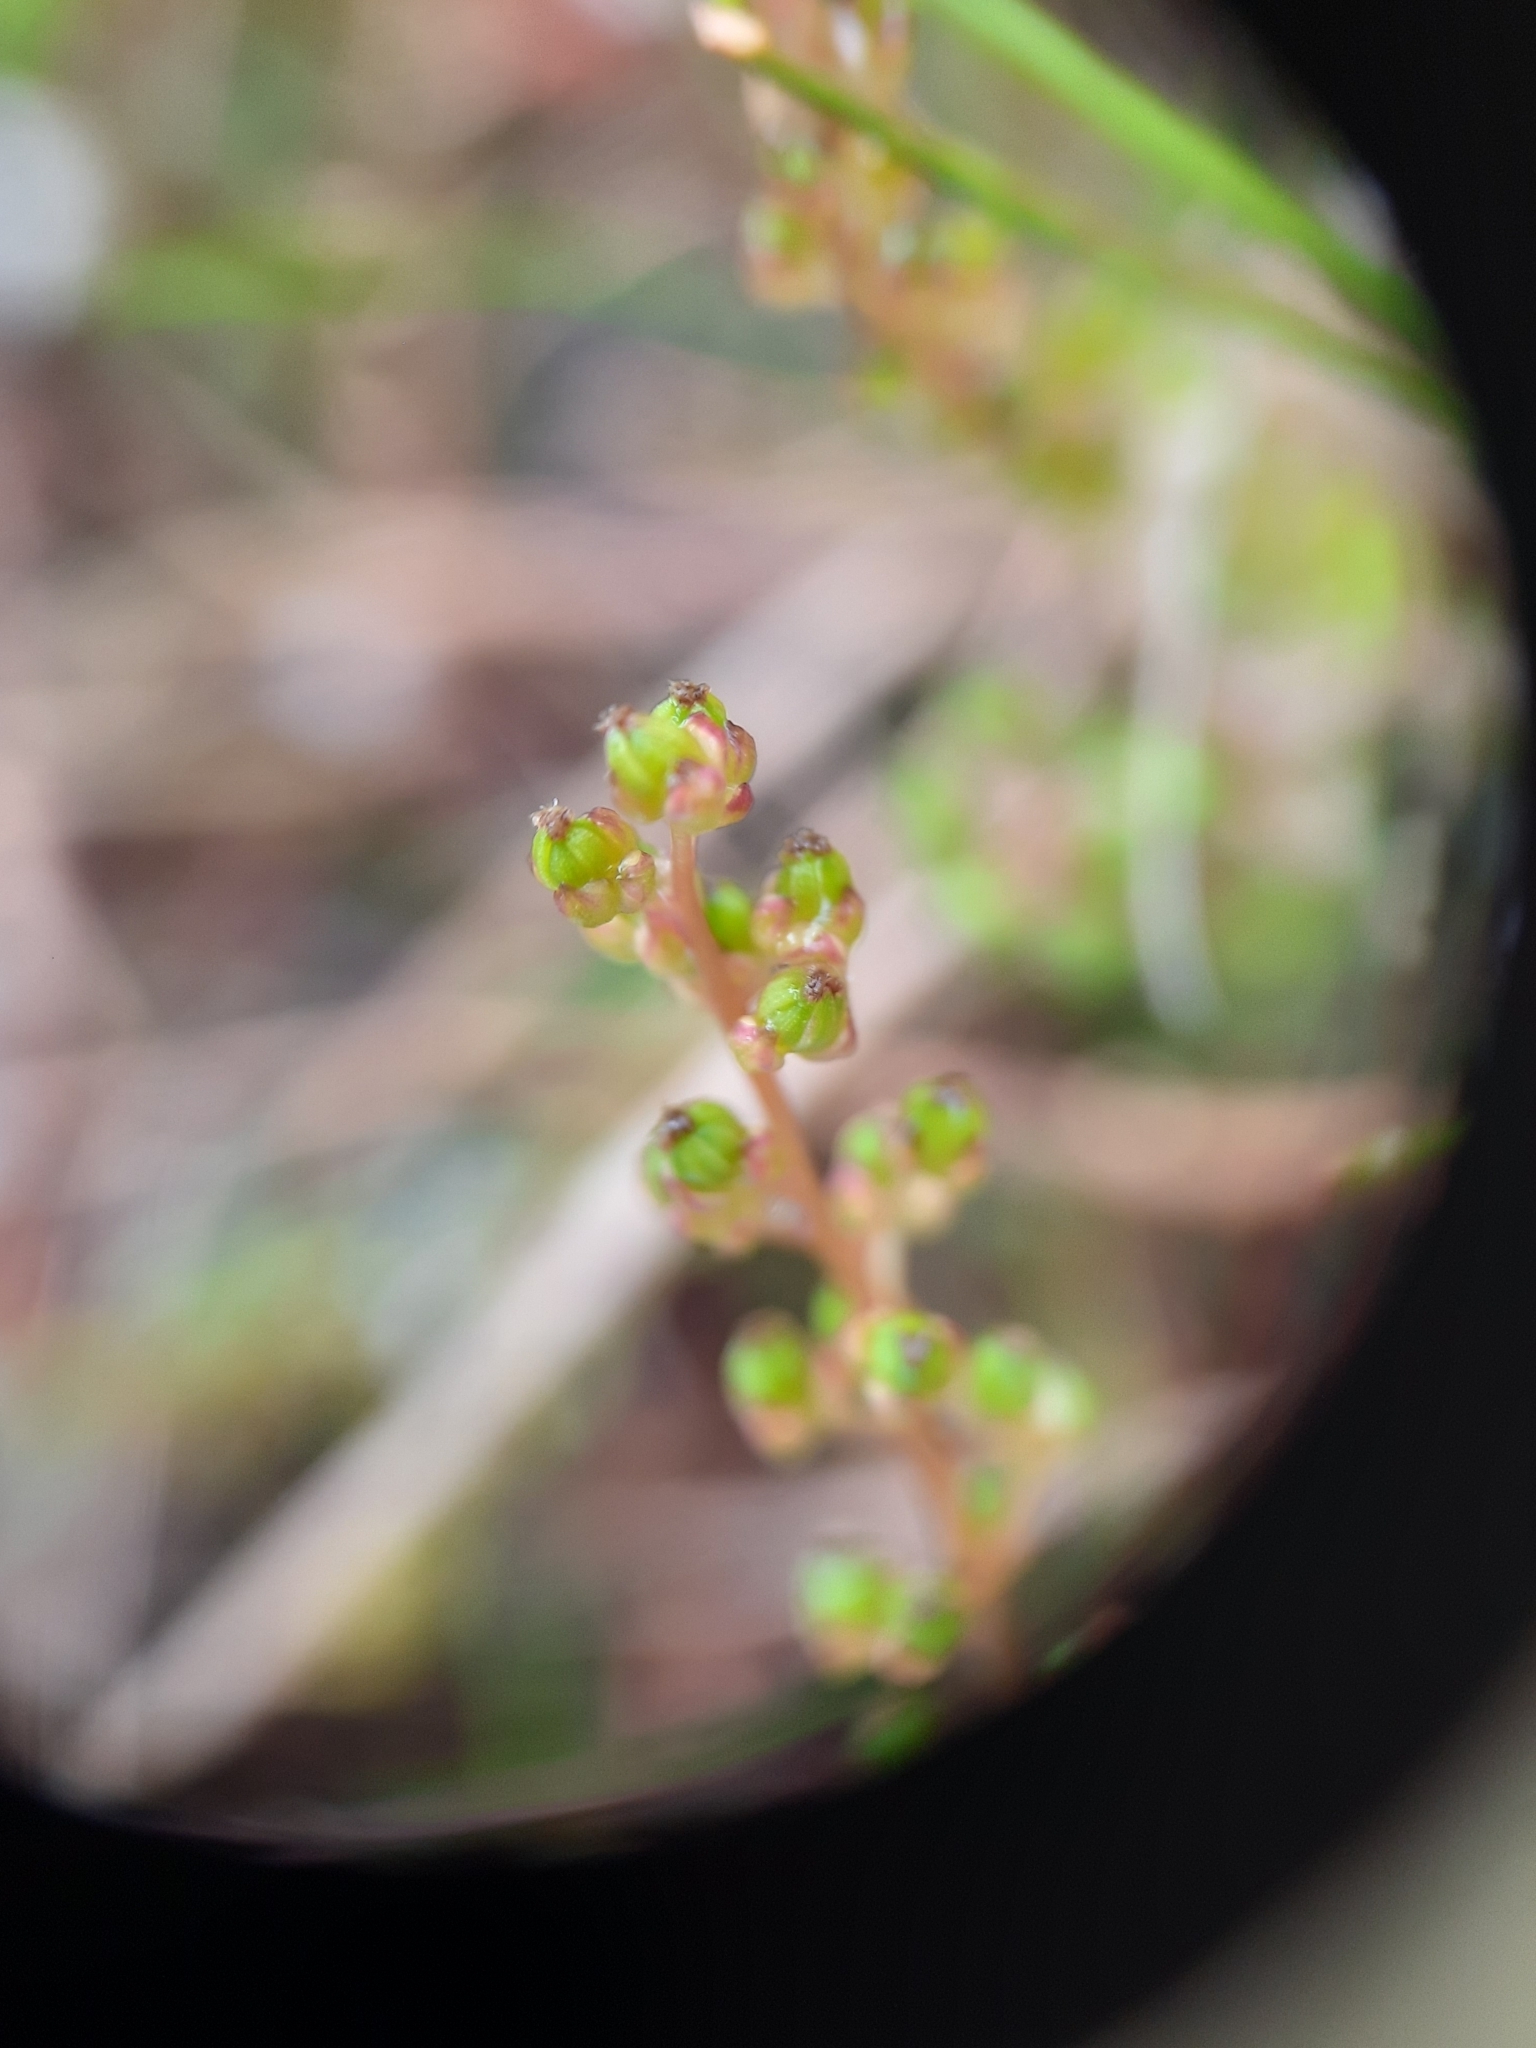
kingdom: Plantae
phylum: Tracheophyta
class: Liliopsida
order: Alismatales
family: Juncaginaceae
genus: Triglochin
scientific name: Triglochin striata
